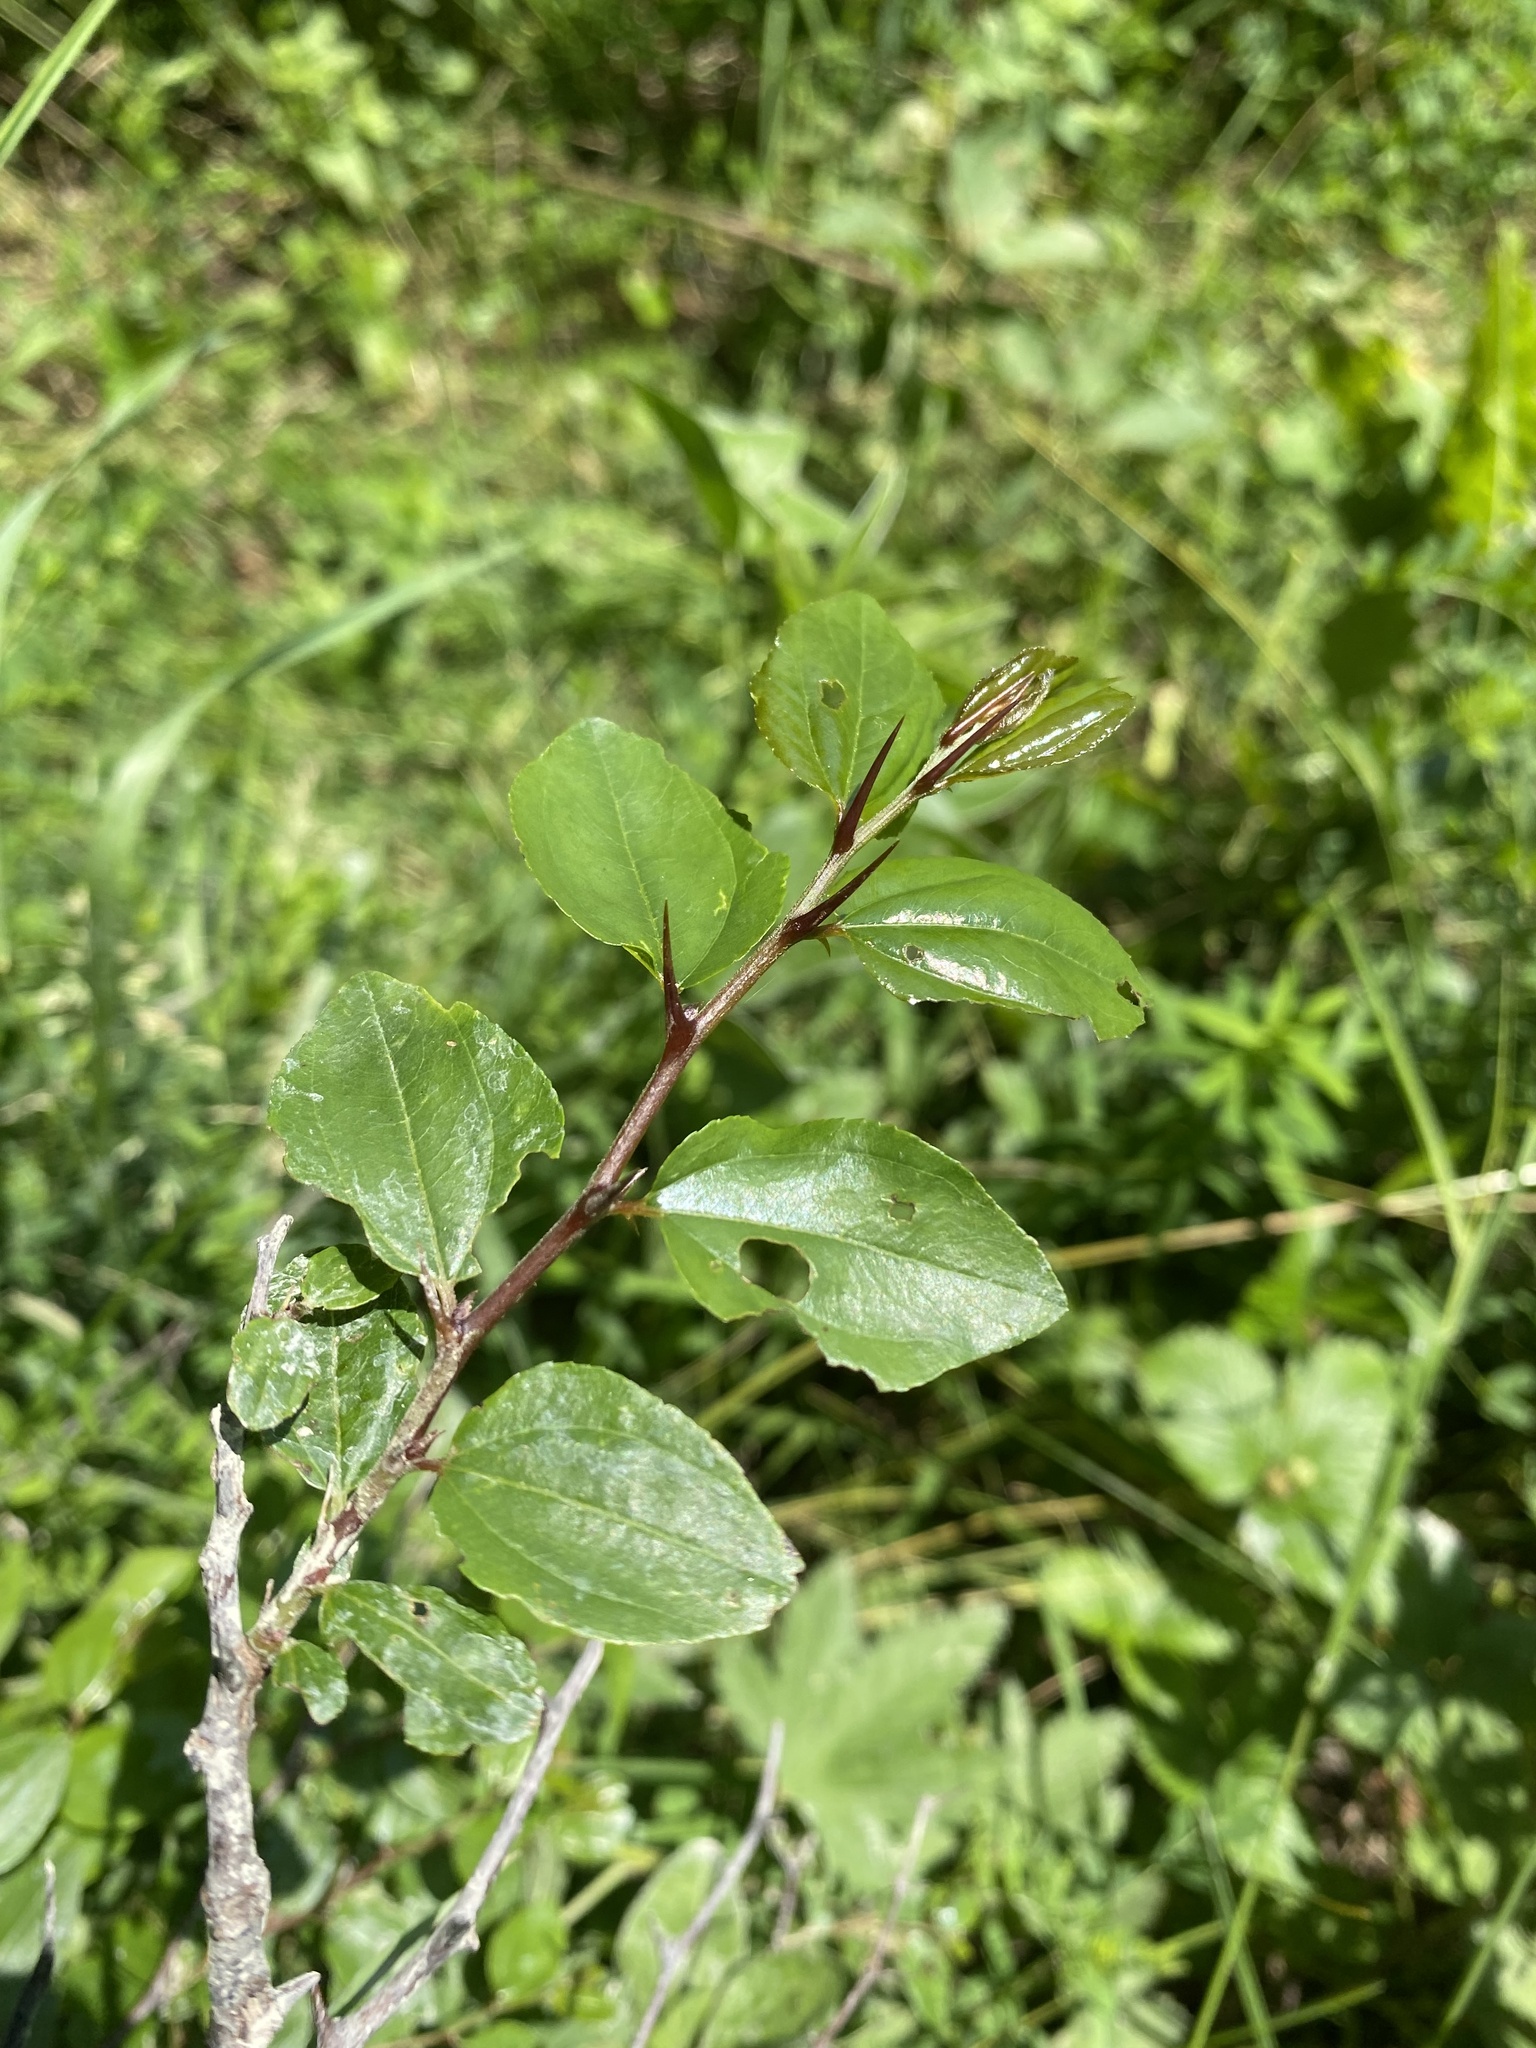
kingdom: Plantae
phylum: Tracheophyta
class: Magnoliopsida
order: Rosales
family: Rhamnaceae
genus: Paliurus
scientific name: Paliurus spina-christi
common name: Jeruselem thorn
